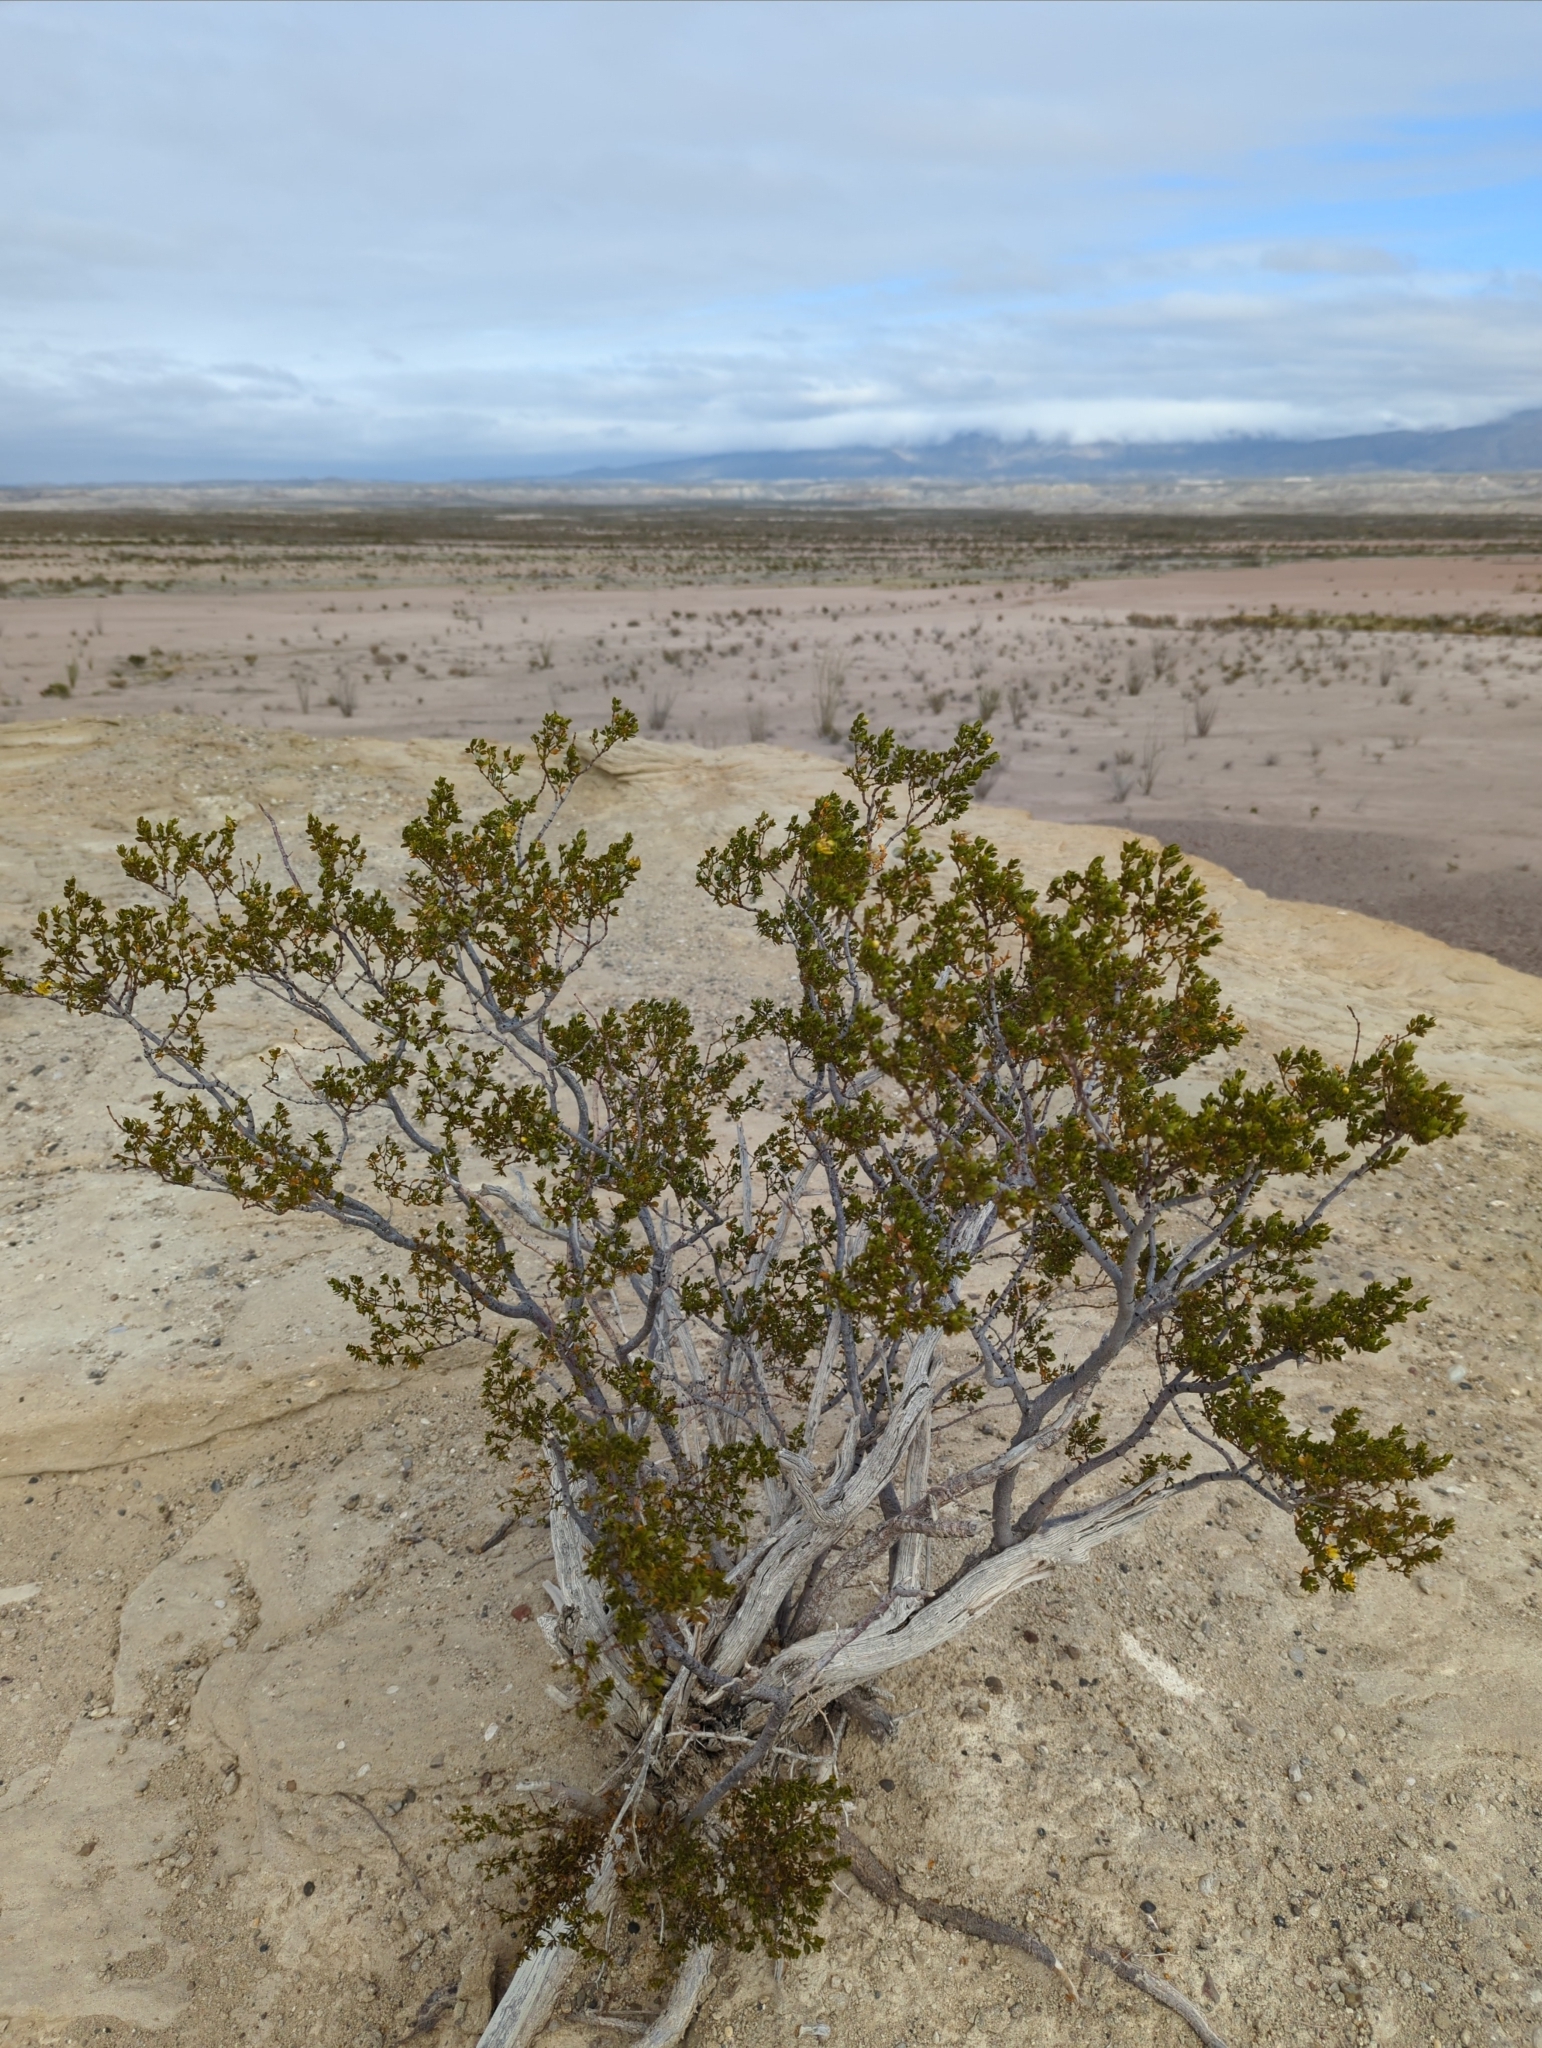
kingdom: Plantae
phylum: Tracheophyta
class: Magnoliopsida
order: Zygophyllales
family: Zygophyllaceae
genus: Larrea
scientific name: Larrea tridentata
